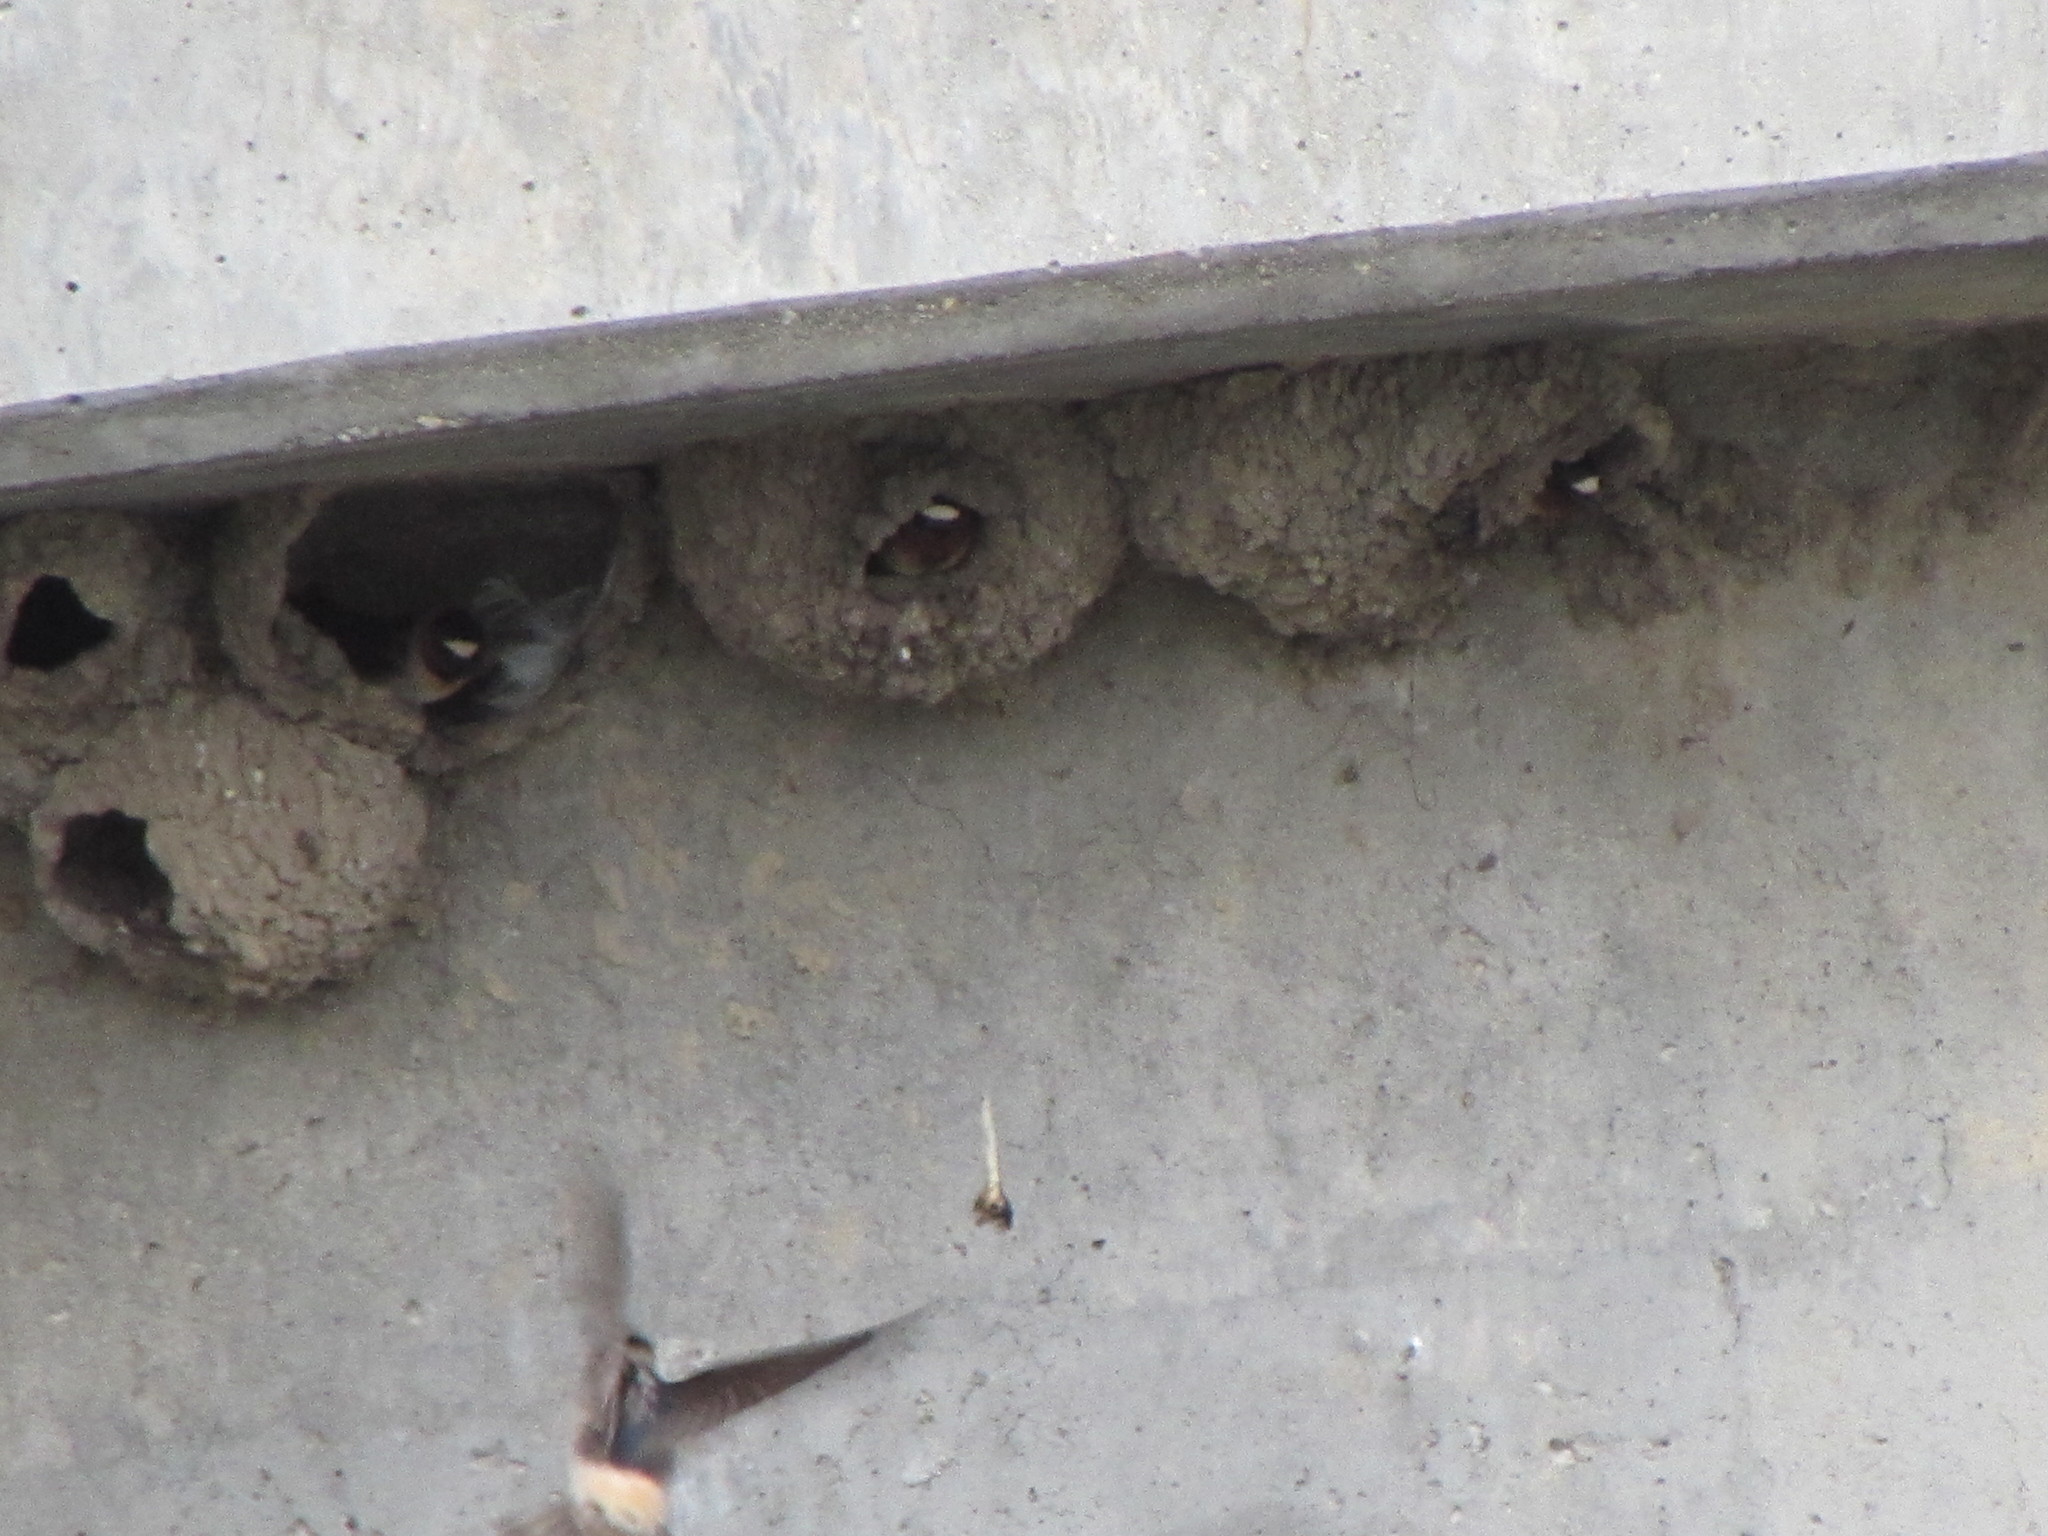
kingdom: Animalia
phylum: Chordata
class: Aves
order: Passeriformes
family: Hirundinidae
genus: Petrochelidon
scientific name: Petrochelidon pyrrhonota
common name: American cliff swallow
